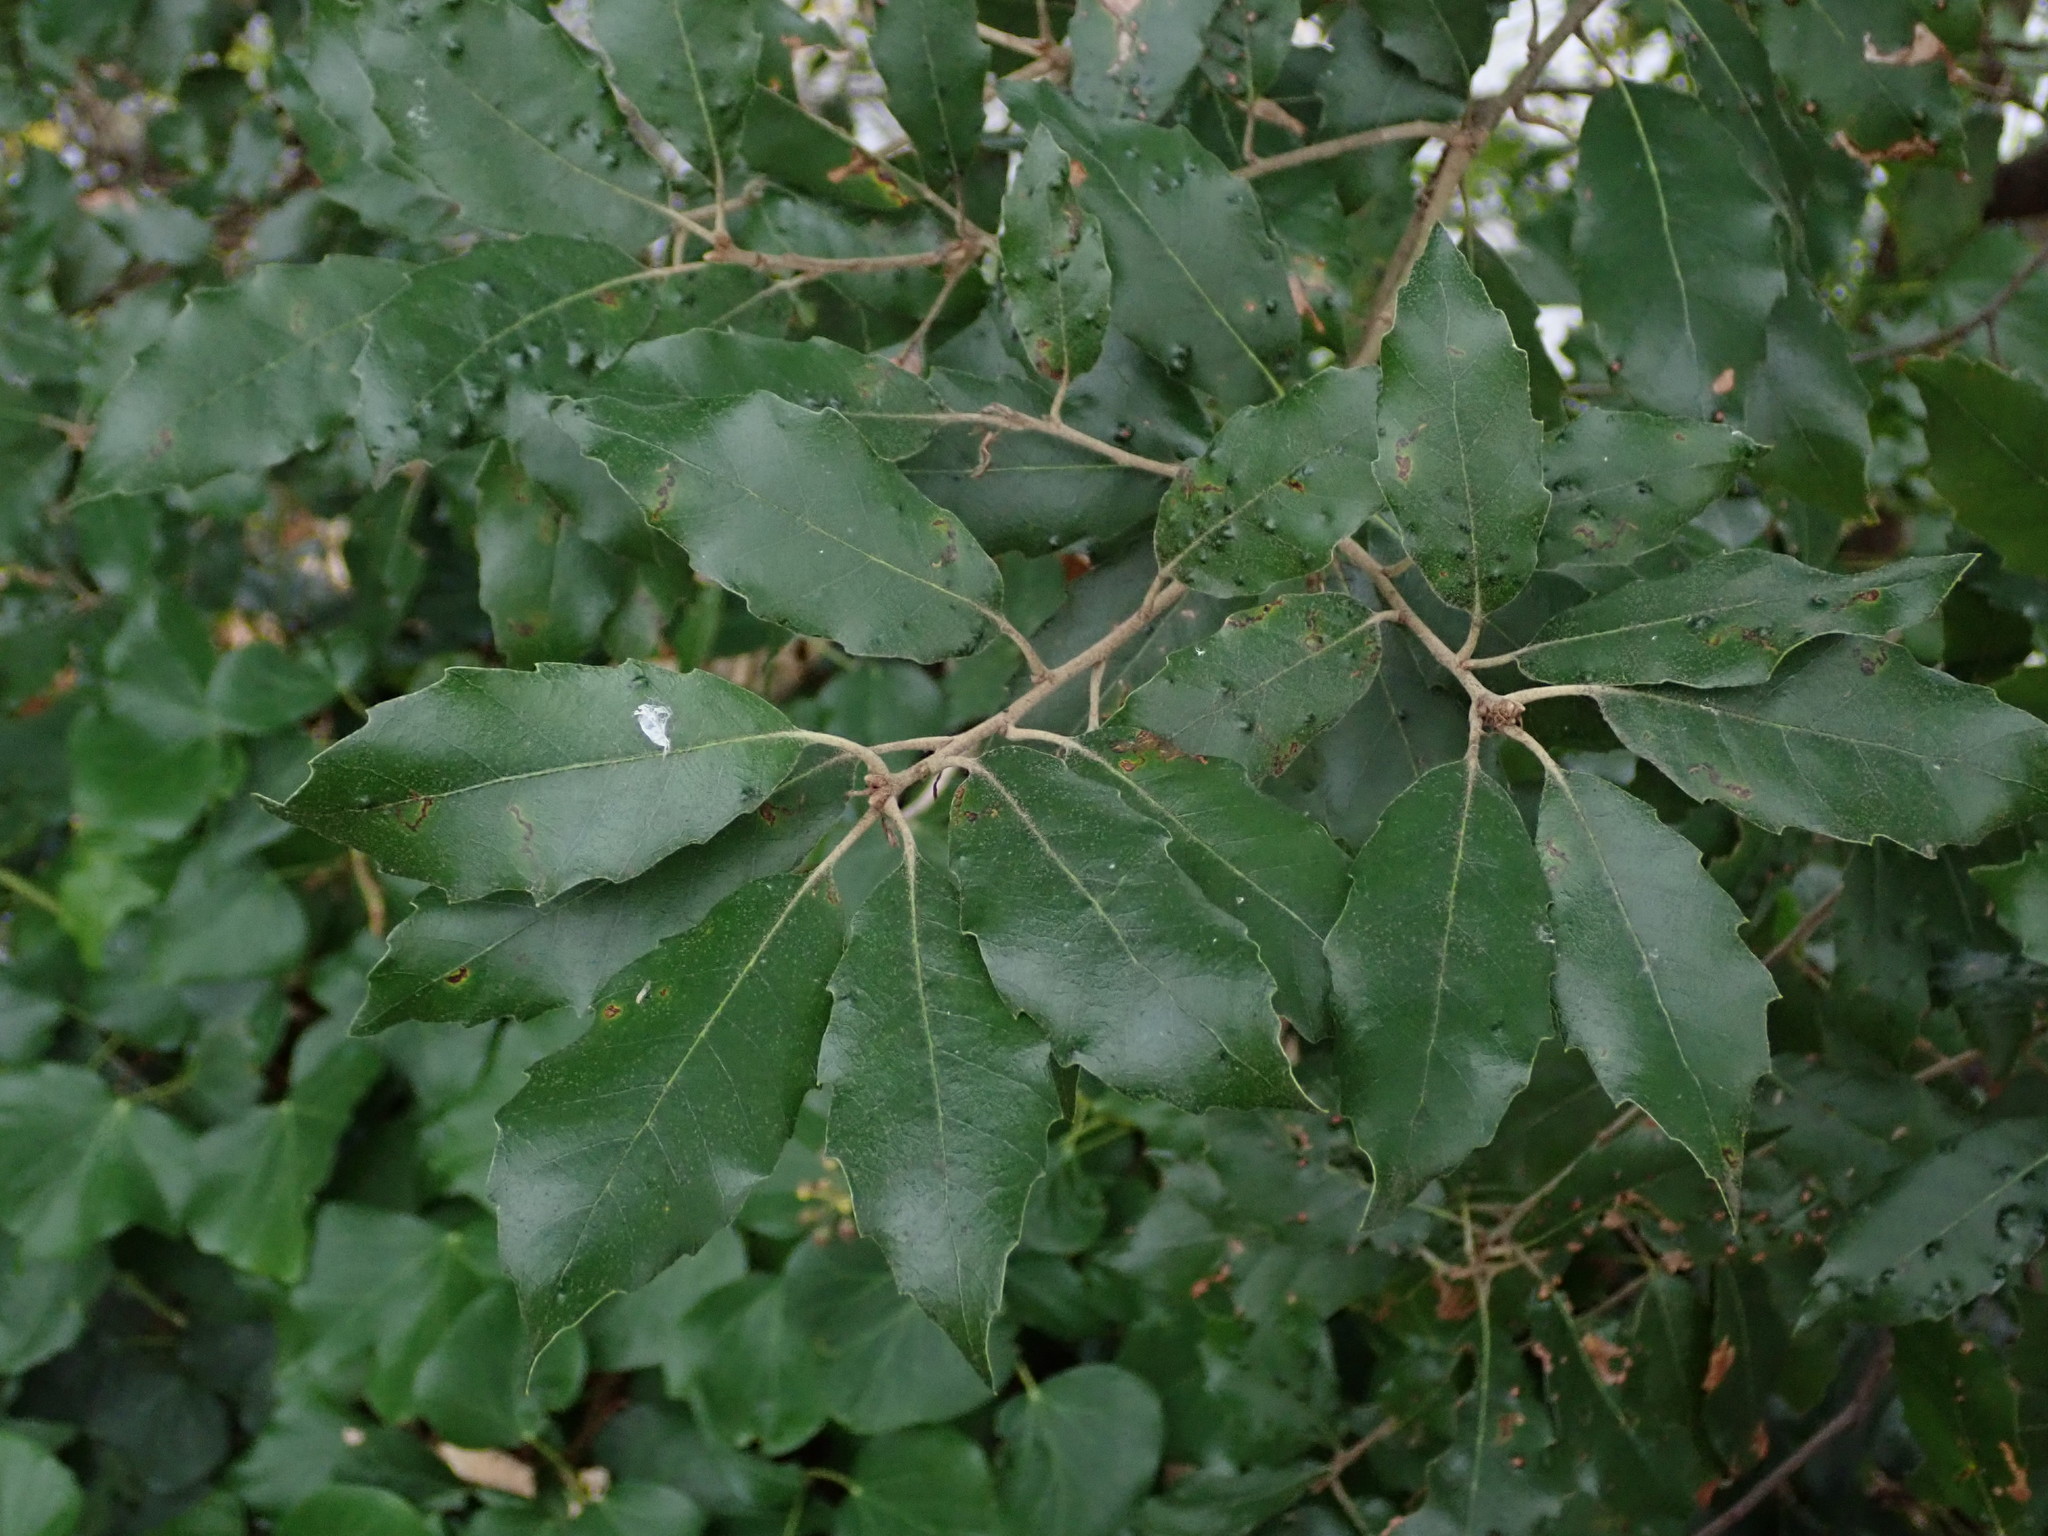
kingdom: Plantae
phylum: Tracheophyta
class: Magnoliopsida
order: Fagales
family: Fagaceae
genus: Quercus
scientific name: Quercus ilex
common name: Evergreen oak
